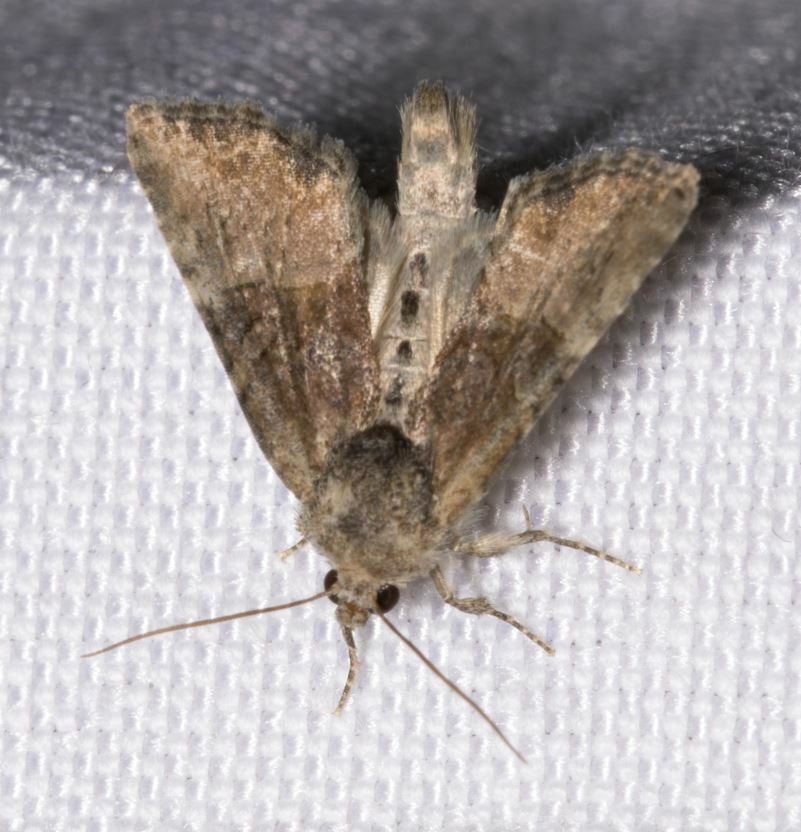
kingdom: Animalia
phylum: Arthropoda
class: Insecta
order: Lepidoptera
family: Noctuidae
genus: Mesoligia
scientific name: Mesoligia furuncula
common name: Cloaked minor
